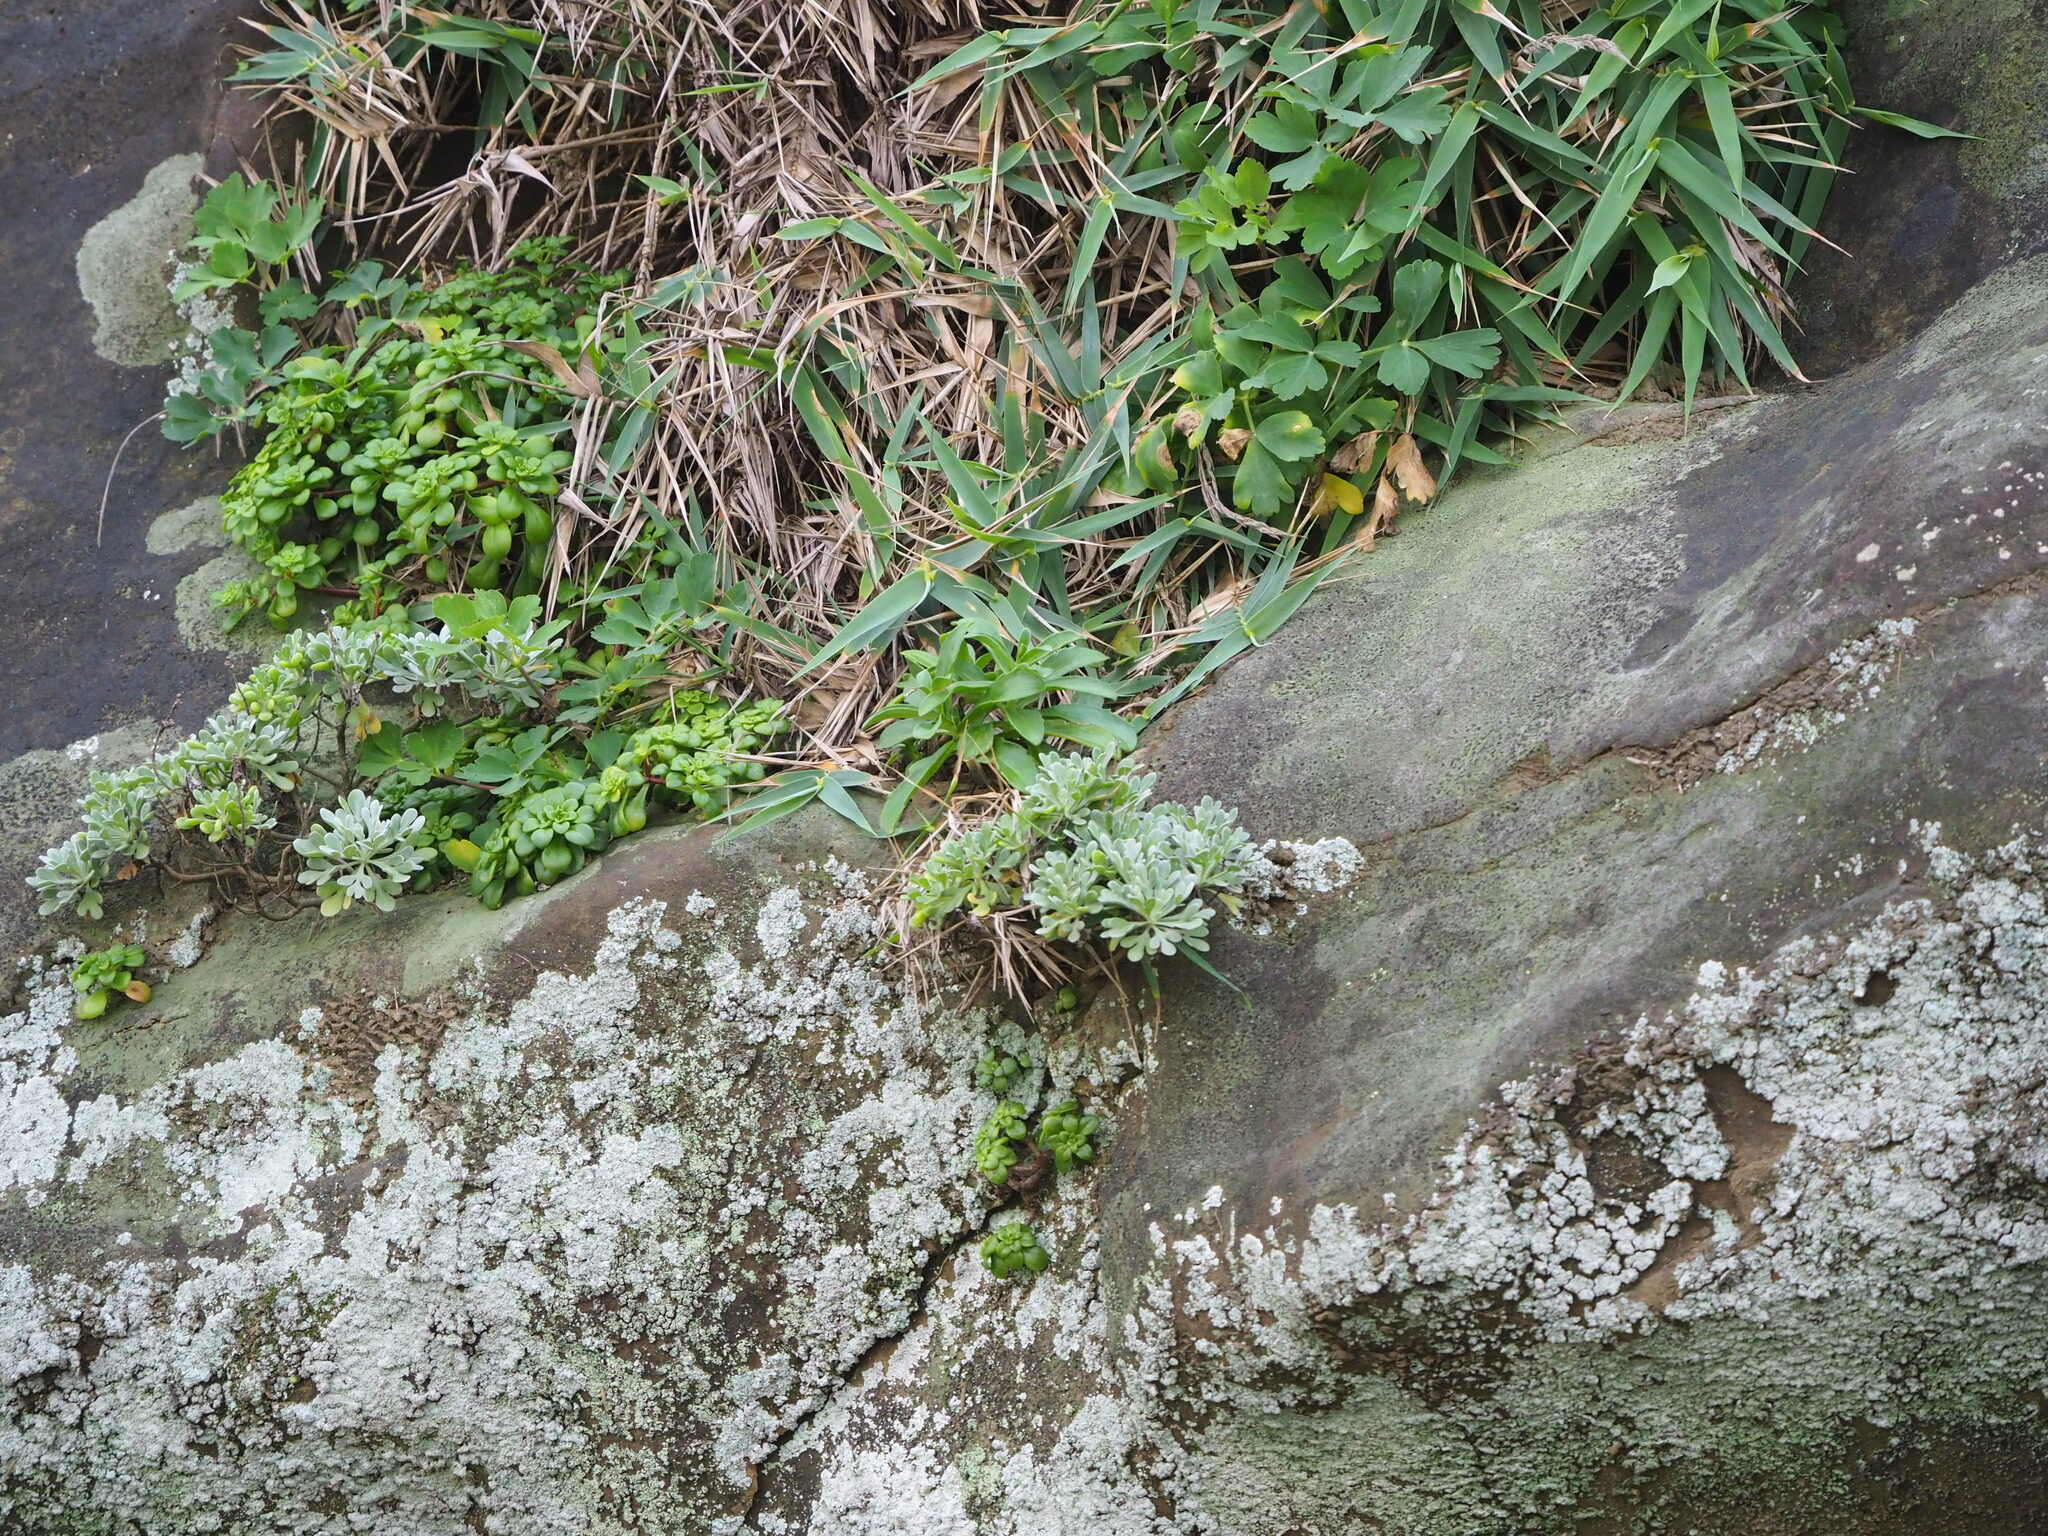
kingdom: Plantae
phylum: Tracheophyta
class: Magnoliopsida
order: Asterales
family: Asteraceae
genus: Crossostephium
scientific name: Crossostephium chinense
